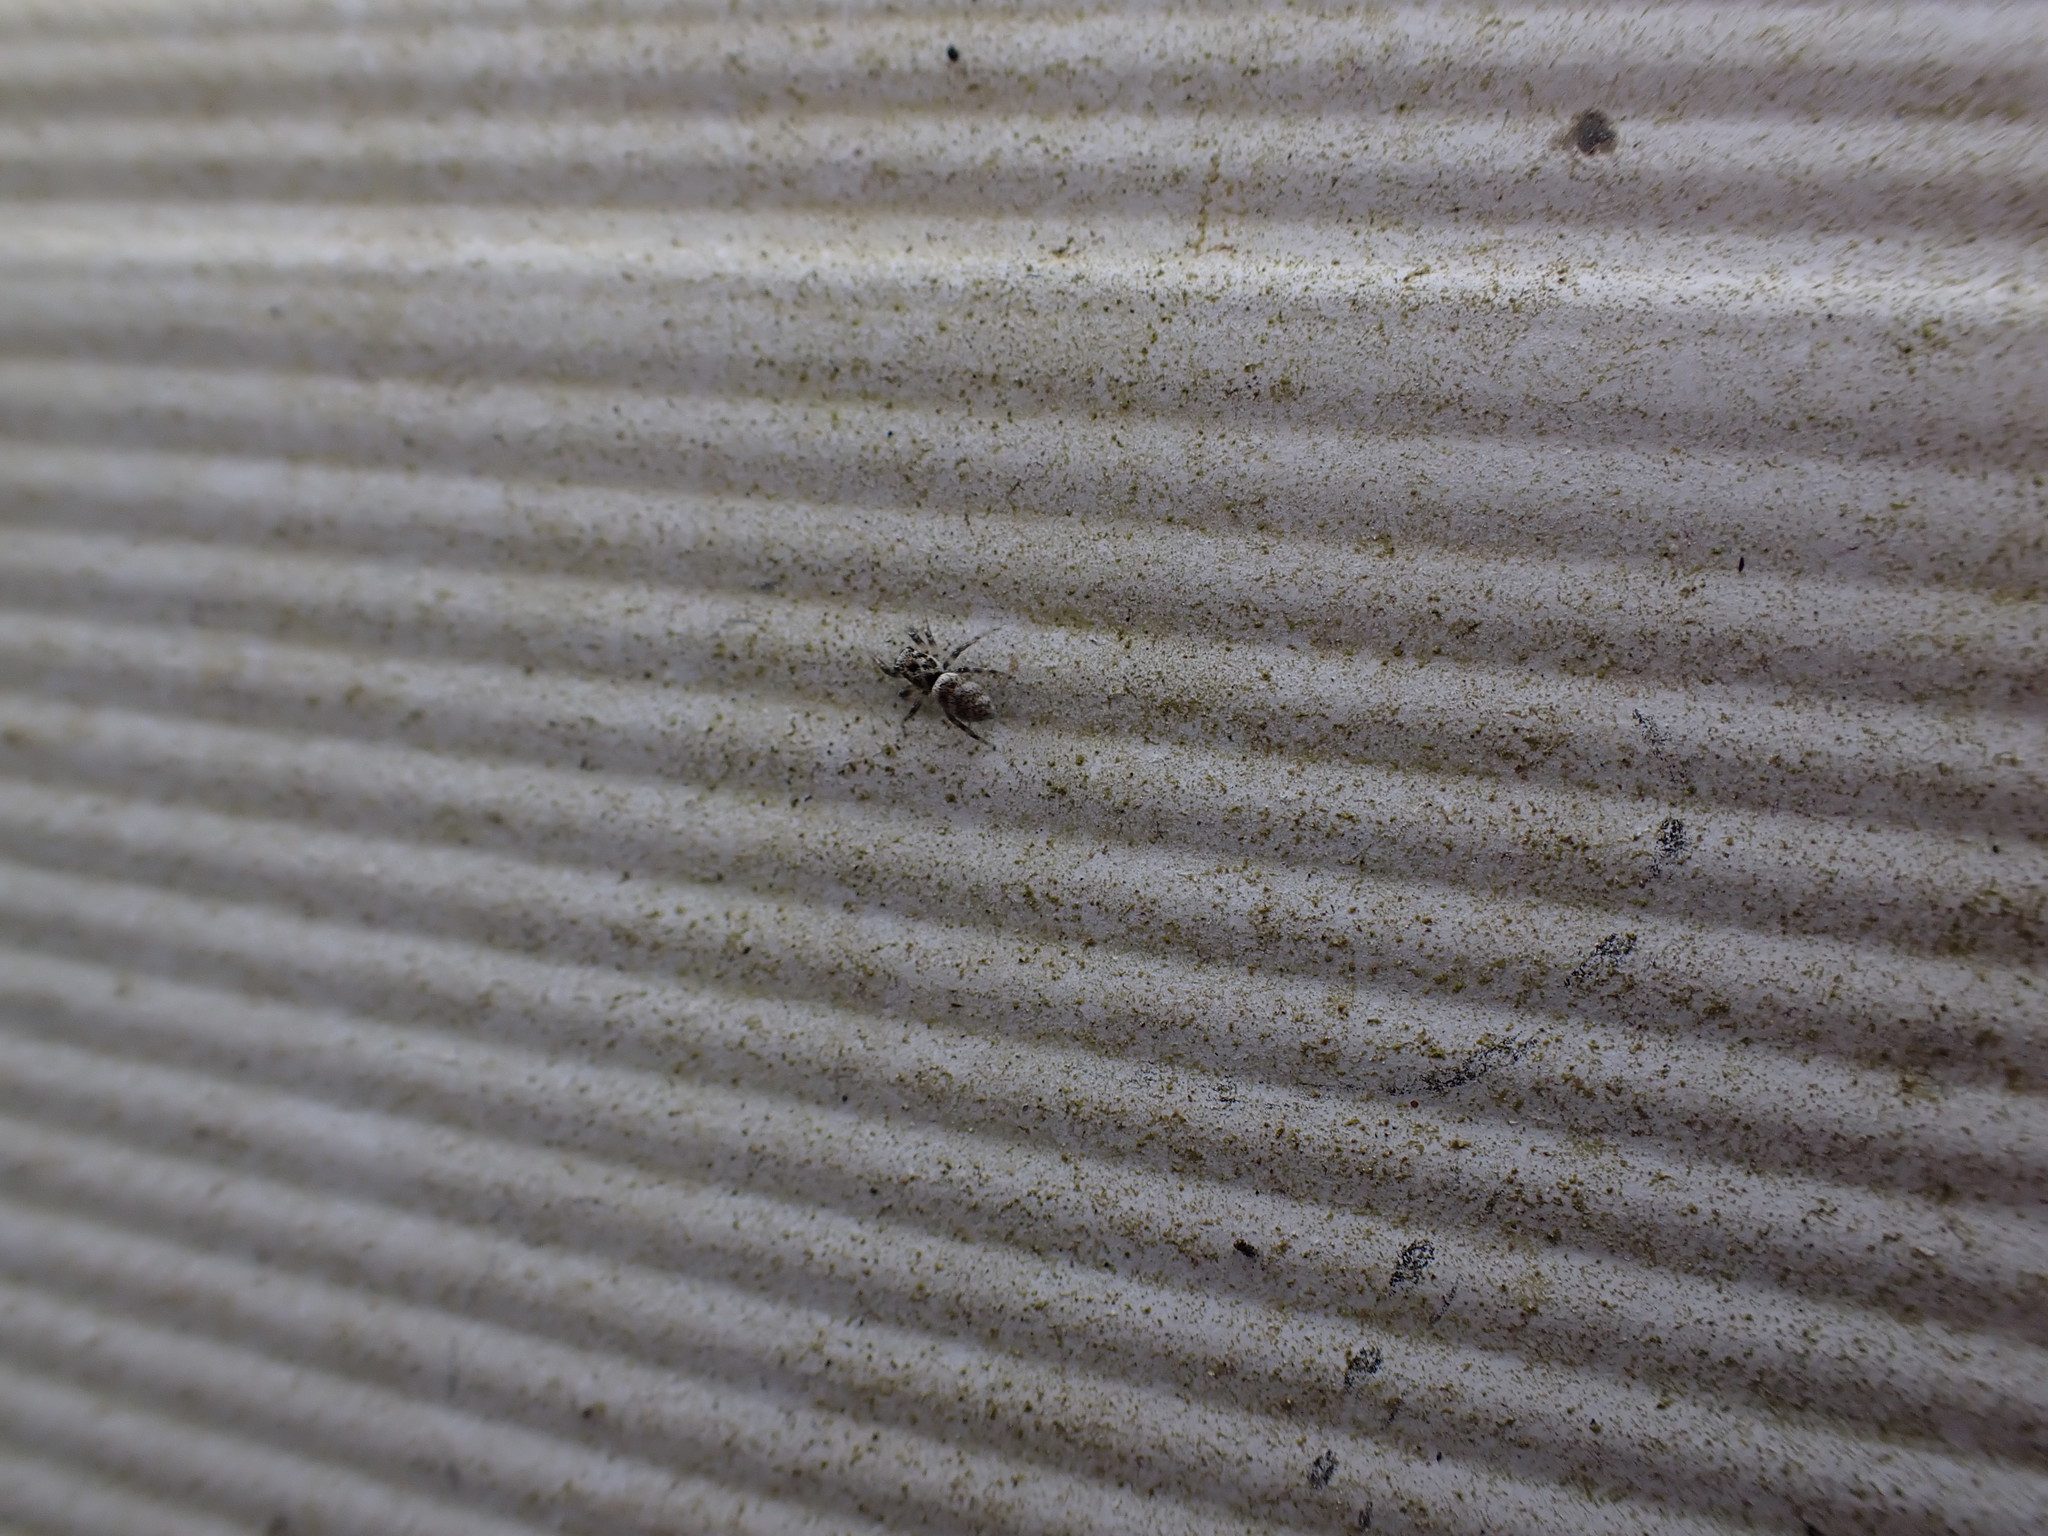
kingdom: Animalia
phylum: Arthropoda
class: Arachnida
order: Araneae
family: Salticidae
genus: Salticus
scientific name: Salticus scenicus
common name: Zebra jumper
